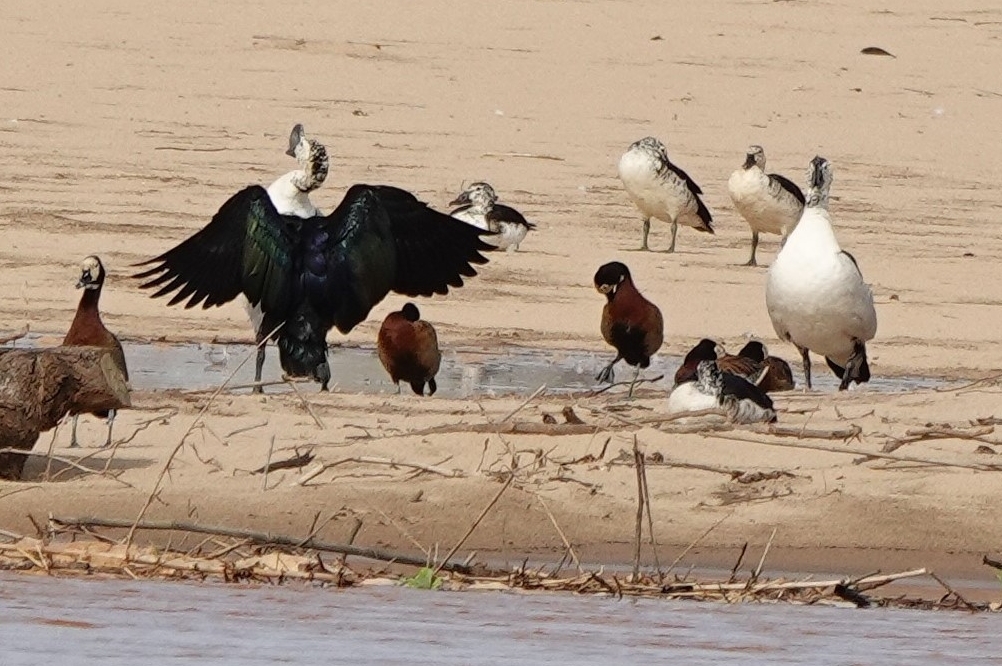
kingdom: Animalia
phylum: Chordata
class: Aves
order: Anseriformes
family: Anatidae
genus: Sarkidiornis
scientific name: Sarkidiornis melanotos
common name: Comb duck
